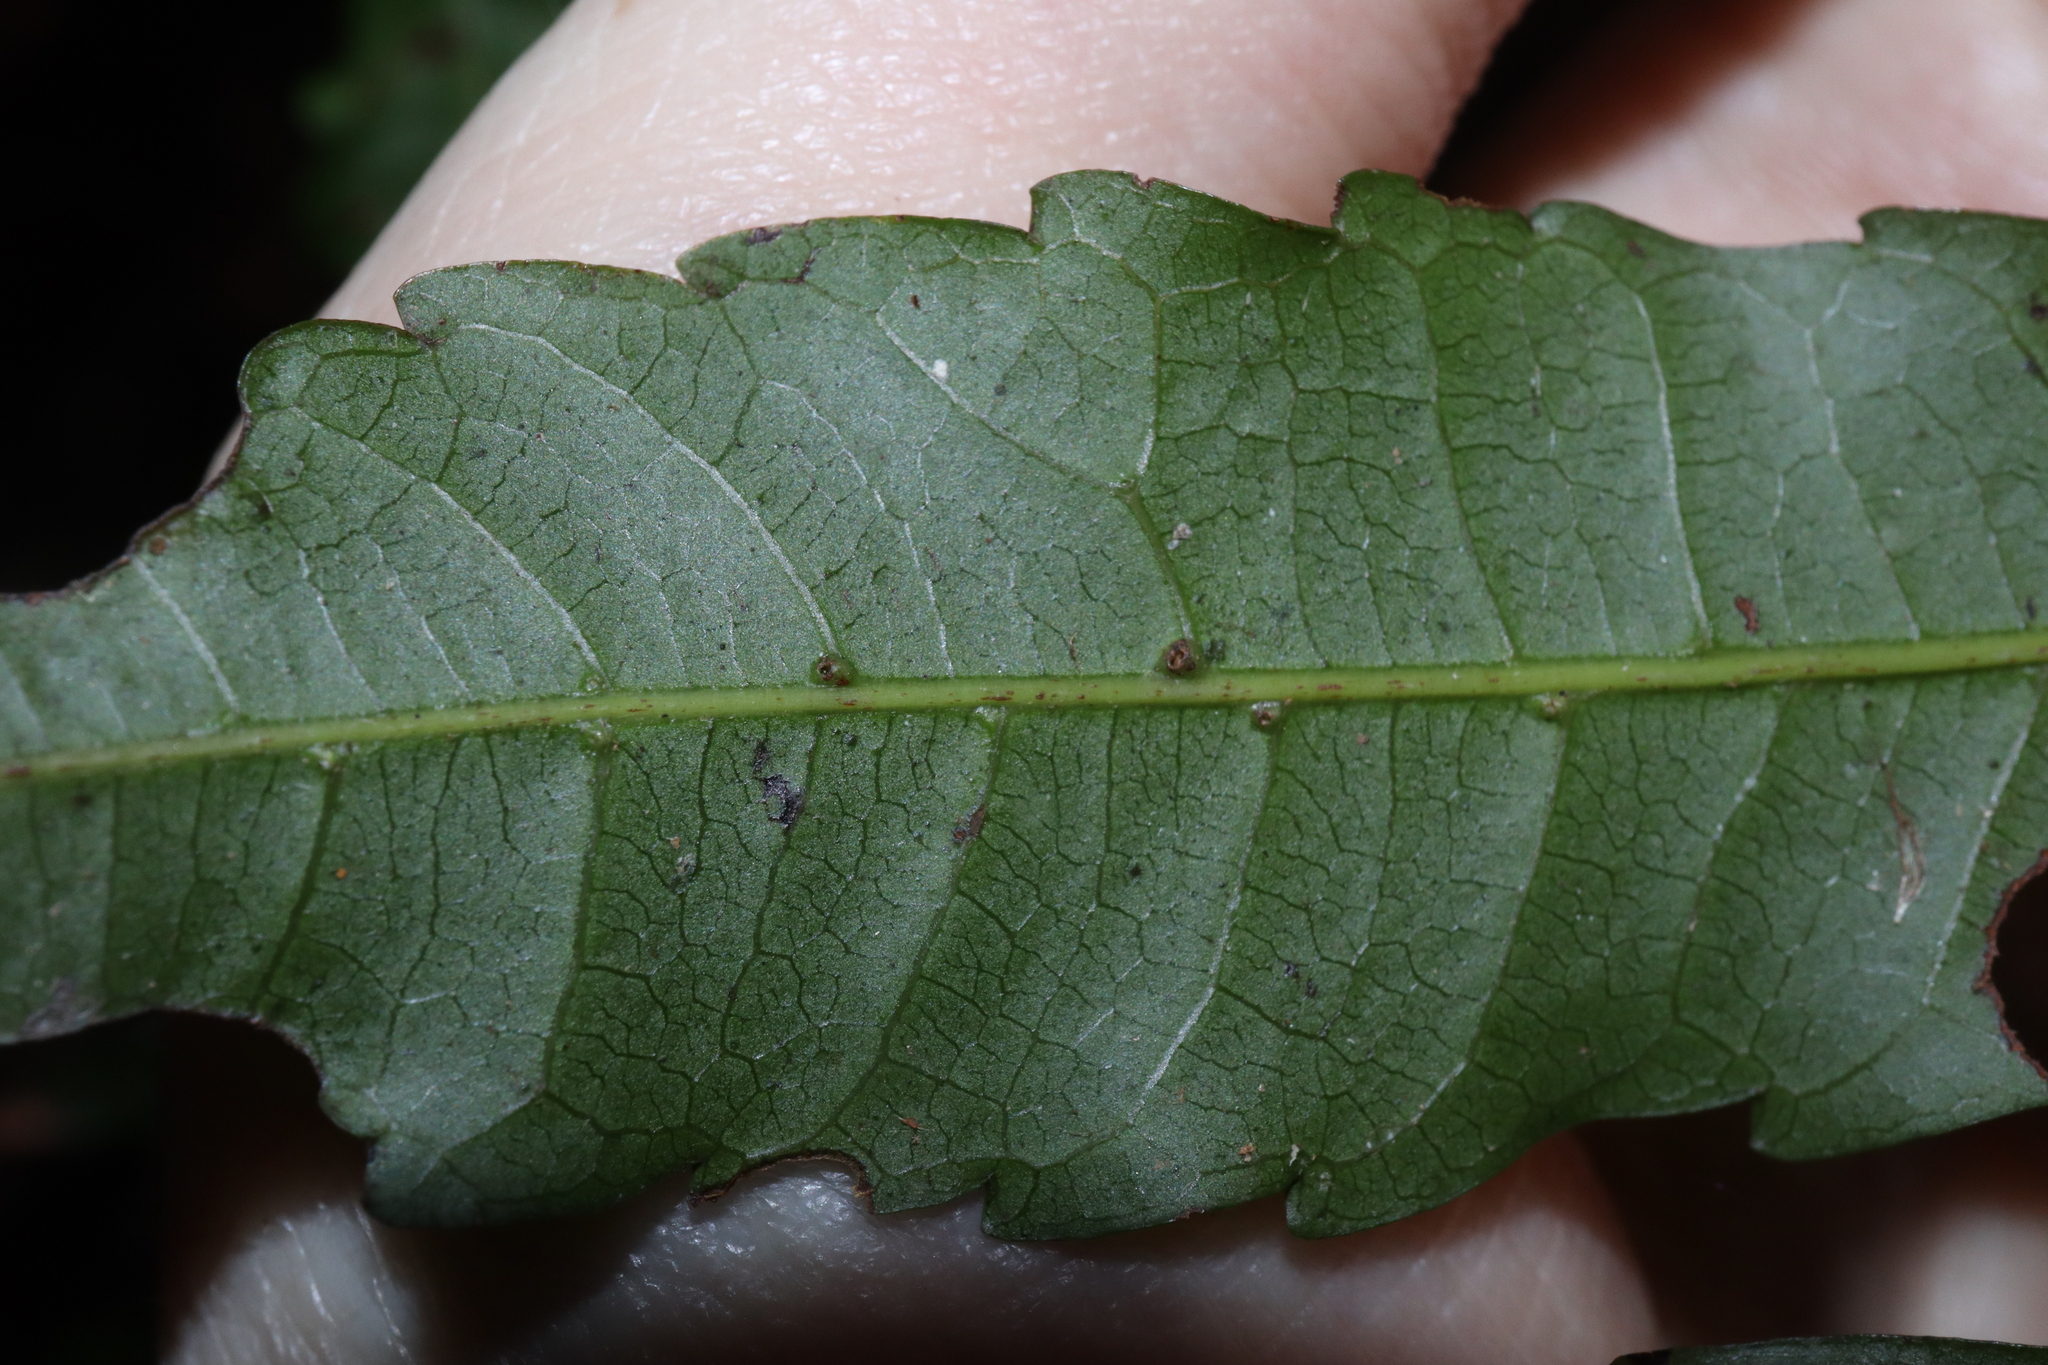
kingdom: Plantae
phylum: Tracheophyta
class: Magnoliopsida
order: Sapindales
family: Sapindaceae
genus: Cupaniopsis
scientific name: Cupaniopsis foveolata
